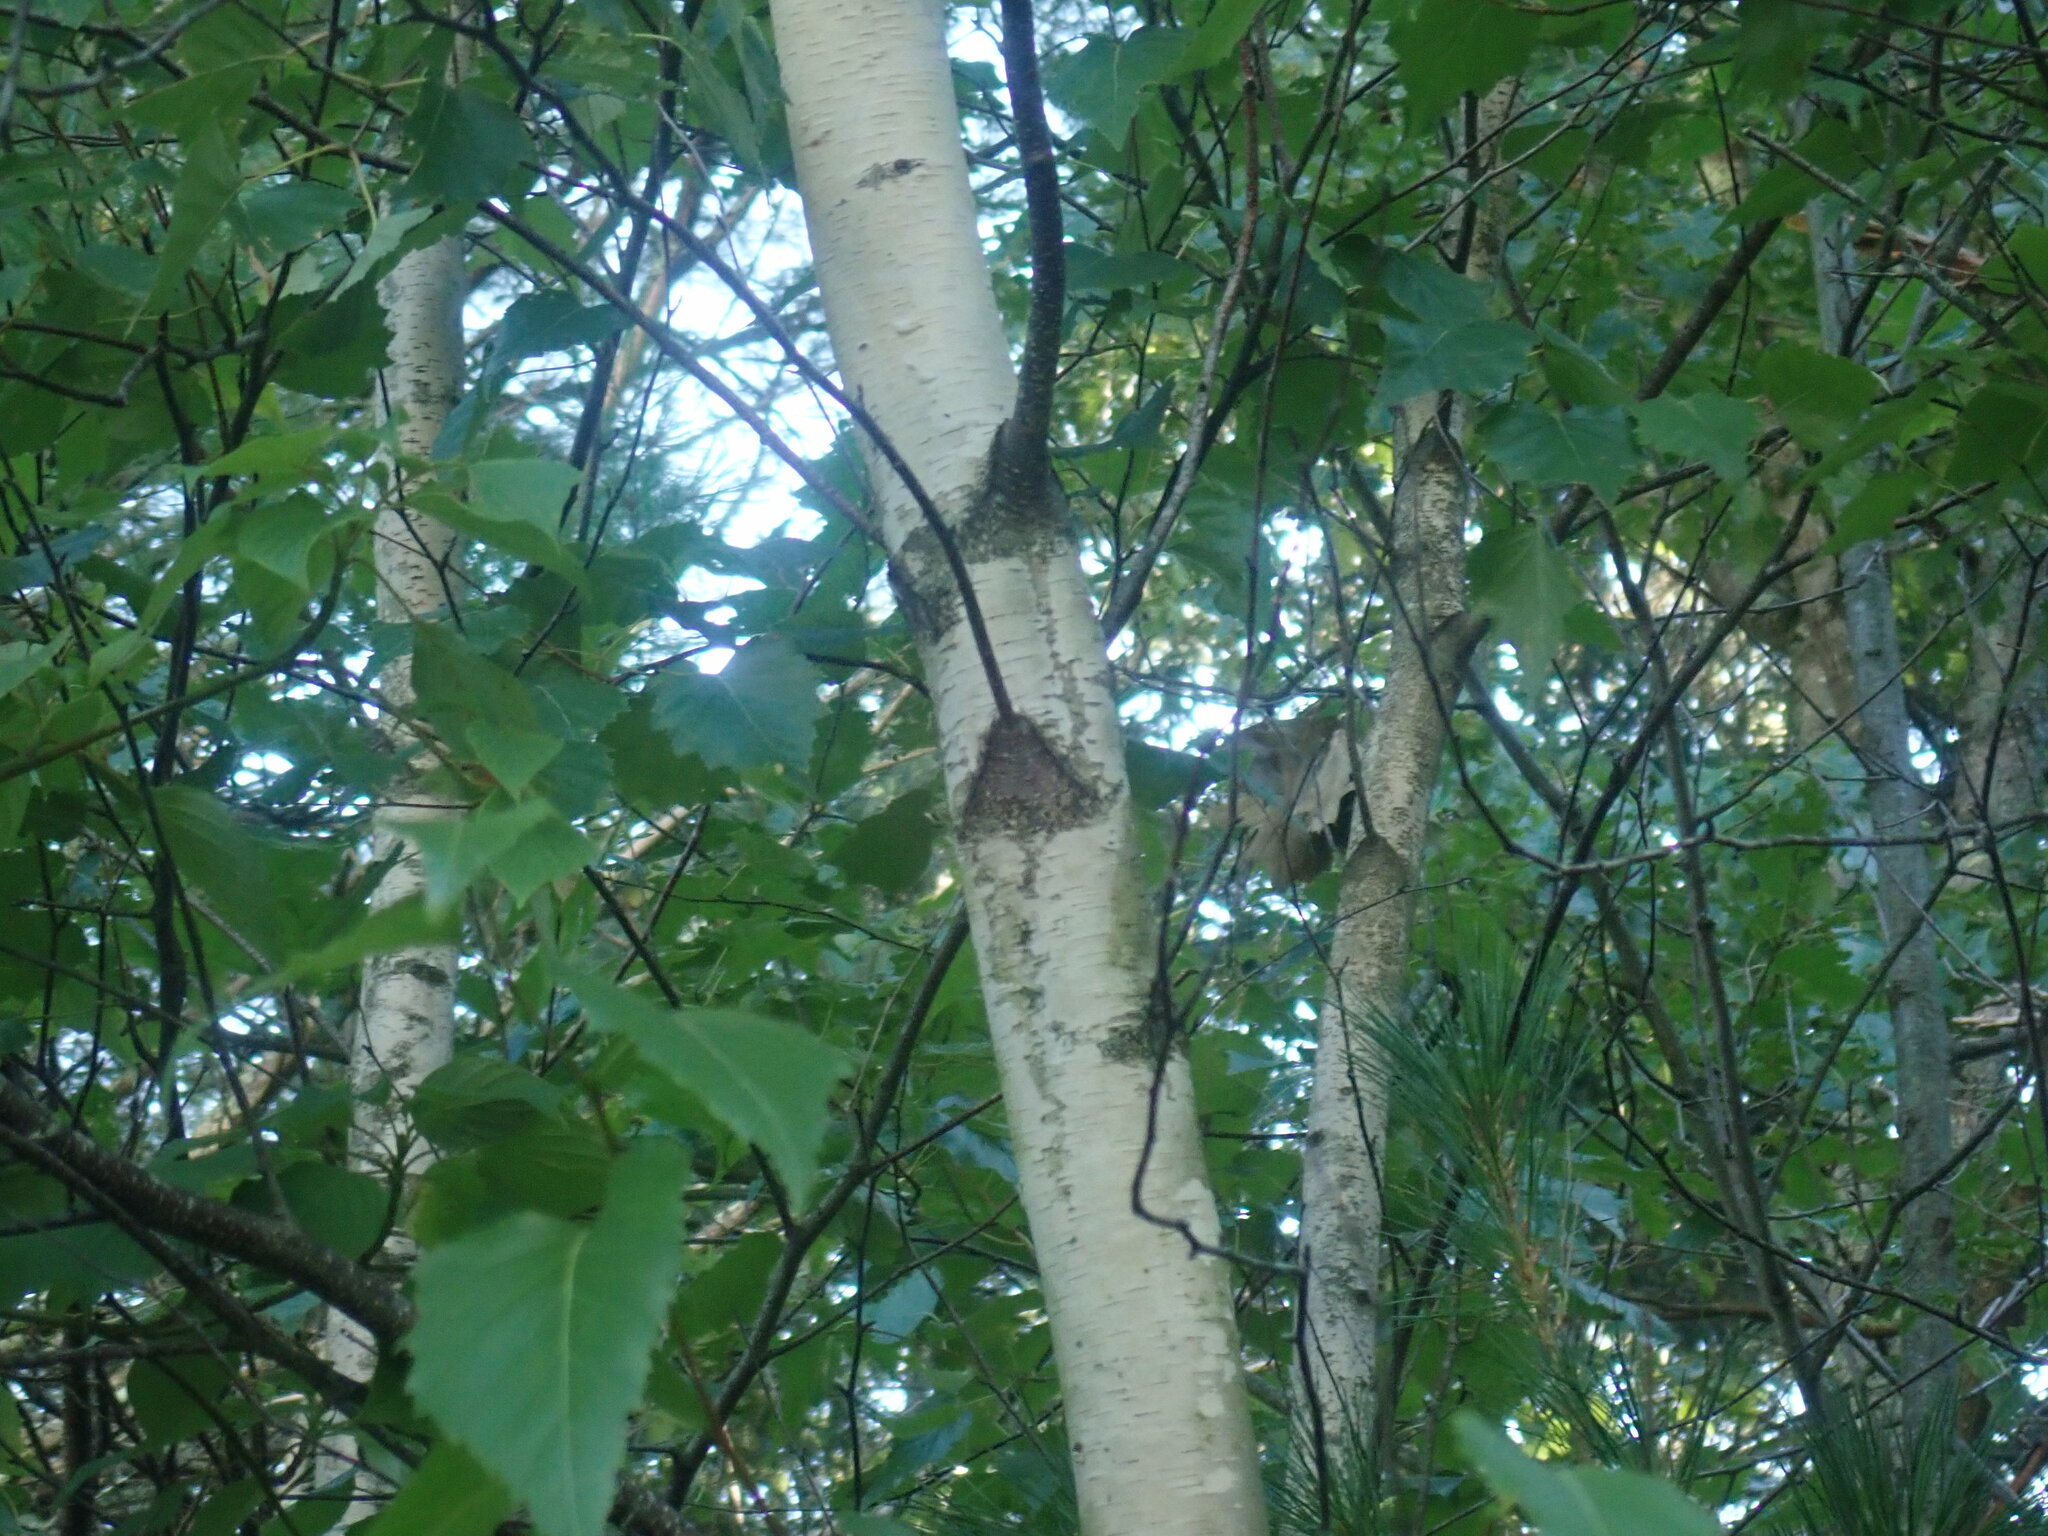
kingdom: Plantae
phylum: Tracheophyta
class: Magnoliopsida
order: Fagales
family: Betulaceae
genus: Betula
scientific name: Betula populifolia
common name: Fire birch
